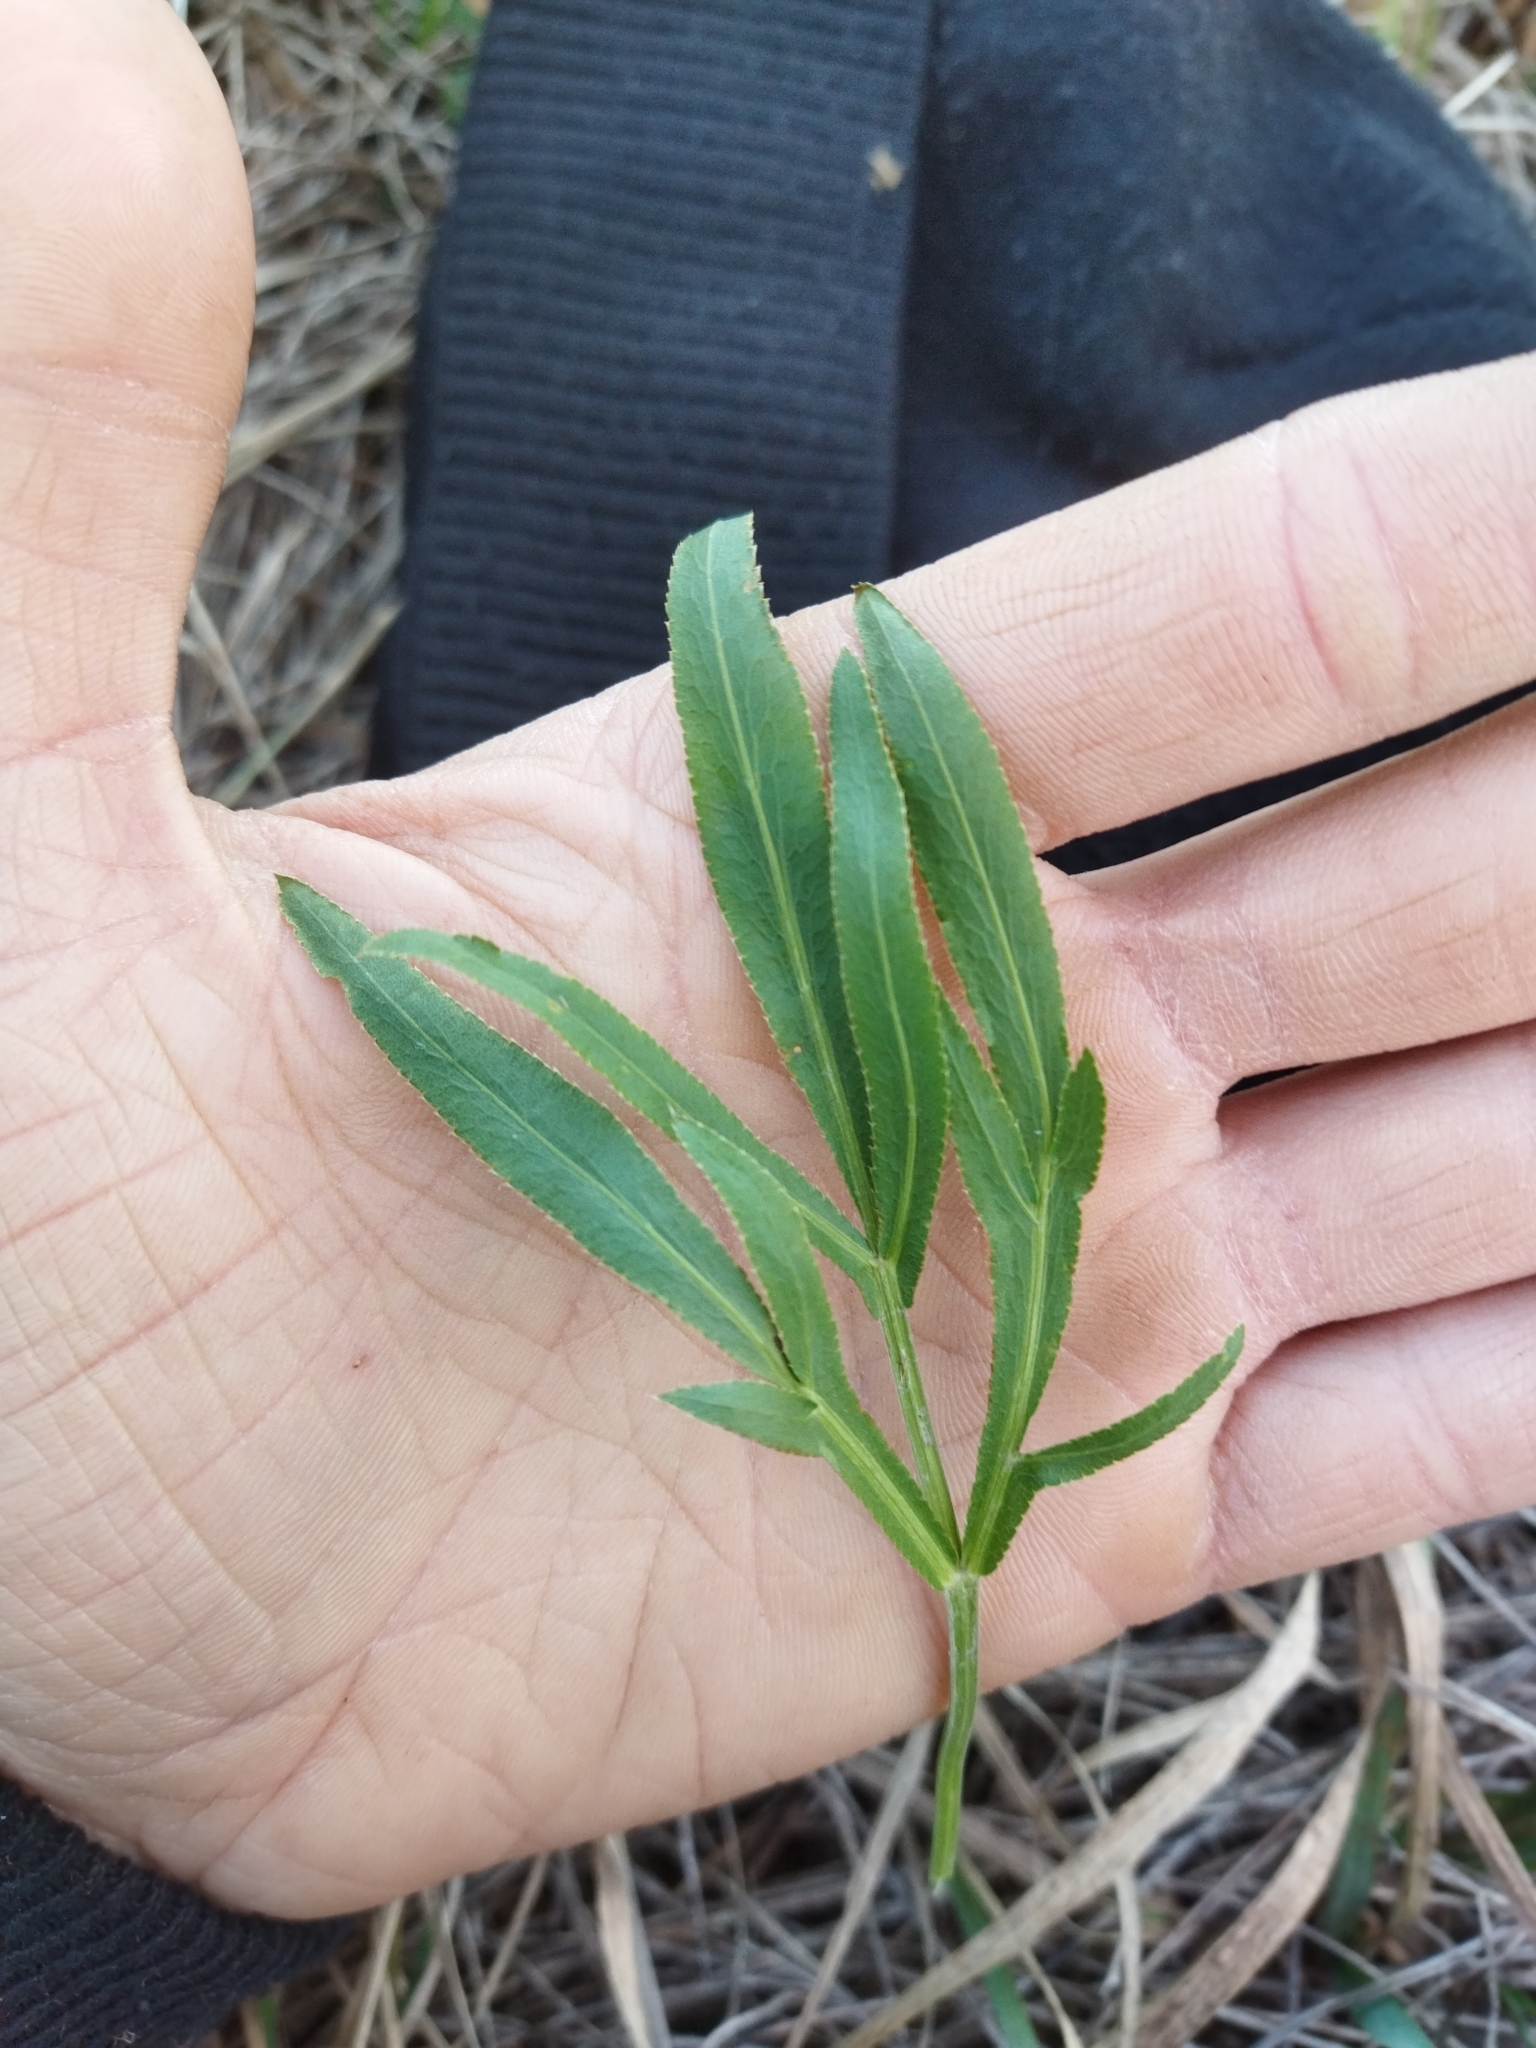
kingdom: Plantae
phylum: Tracheophyta
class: Magnoliopsida
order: Apiales
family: Apiaceae
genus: Falcaria
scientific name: Falcaria vulgaris
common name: Longleaf
